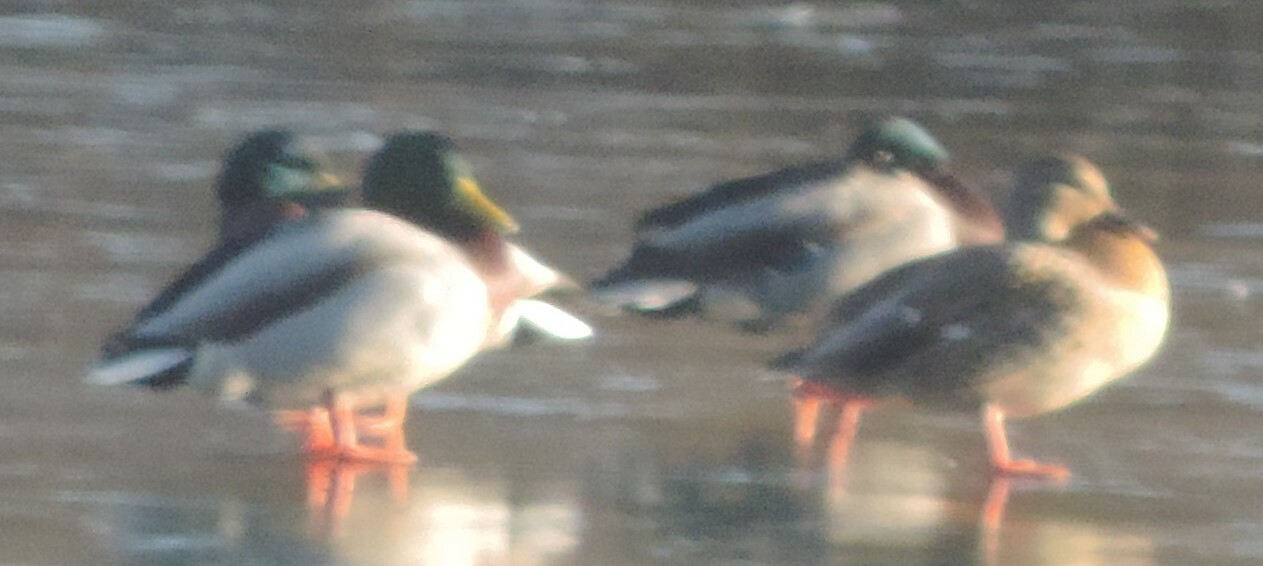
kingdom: Animalia
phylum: Chordata
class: Aves
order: Anseriformes
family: Anatidae
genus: Anas
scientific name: Anas platyrhynchos
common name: Mallard
